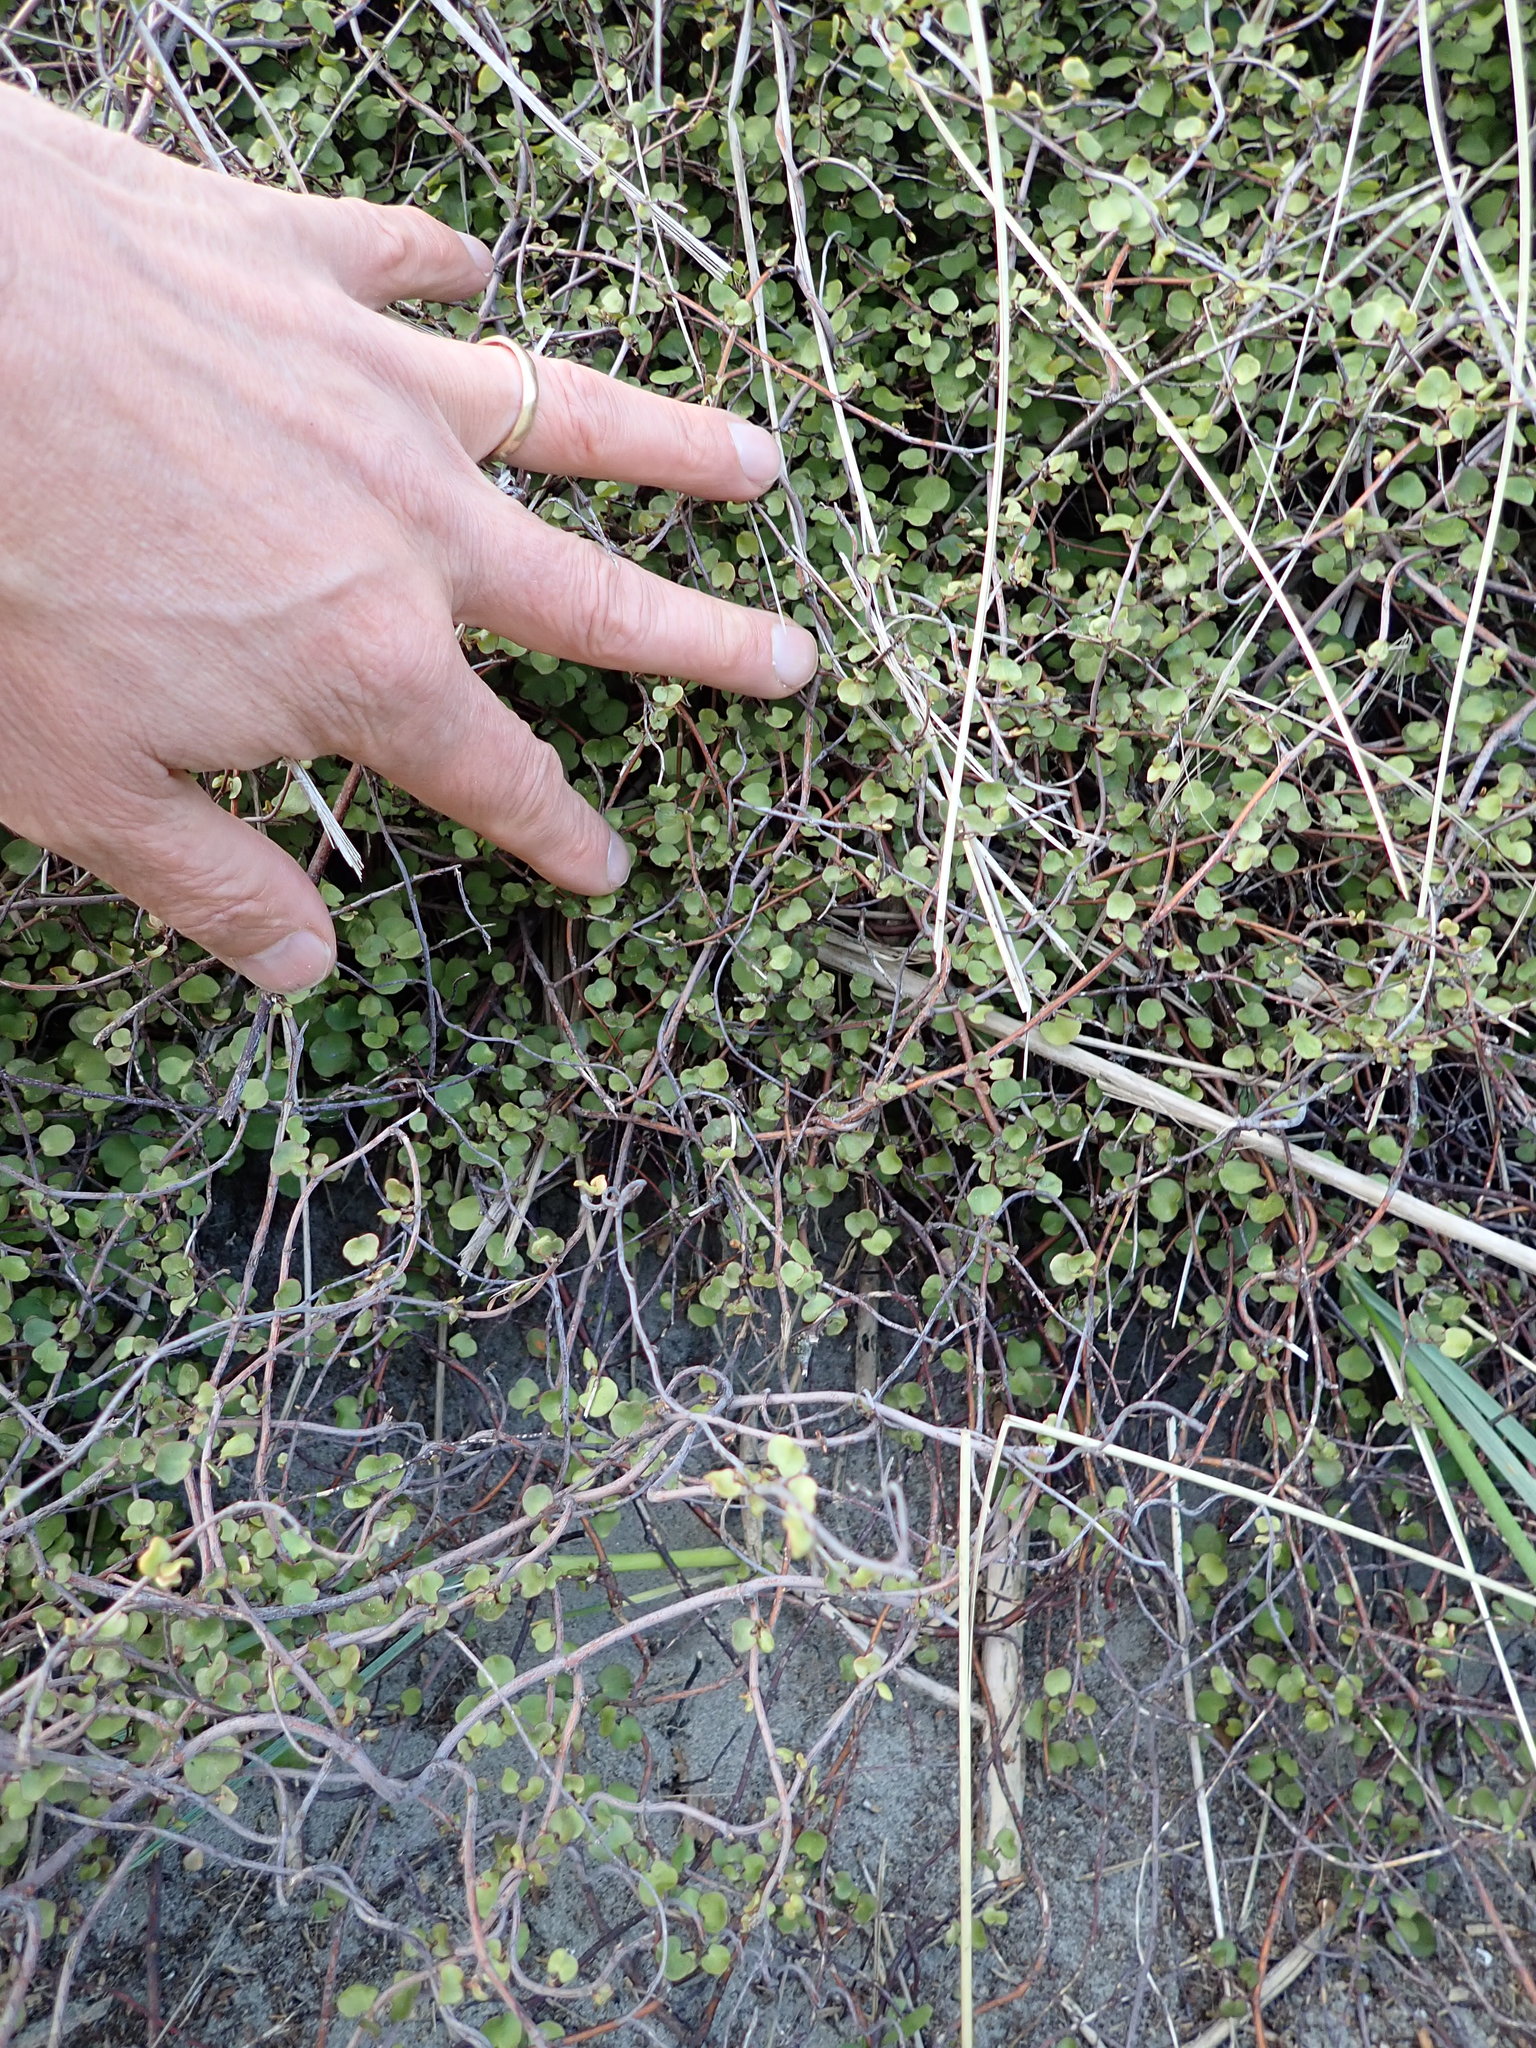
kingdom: Plantae
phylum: Tracheophyta
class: Magnoliopsida
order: Caryophyllales
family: Polygonaceae
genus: Muehlenbeckia
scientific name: Muehlenbeckia complexa
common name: Wireplant
